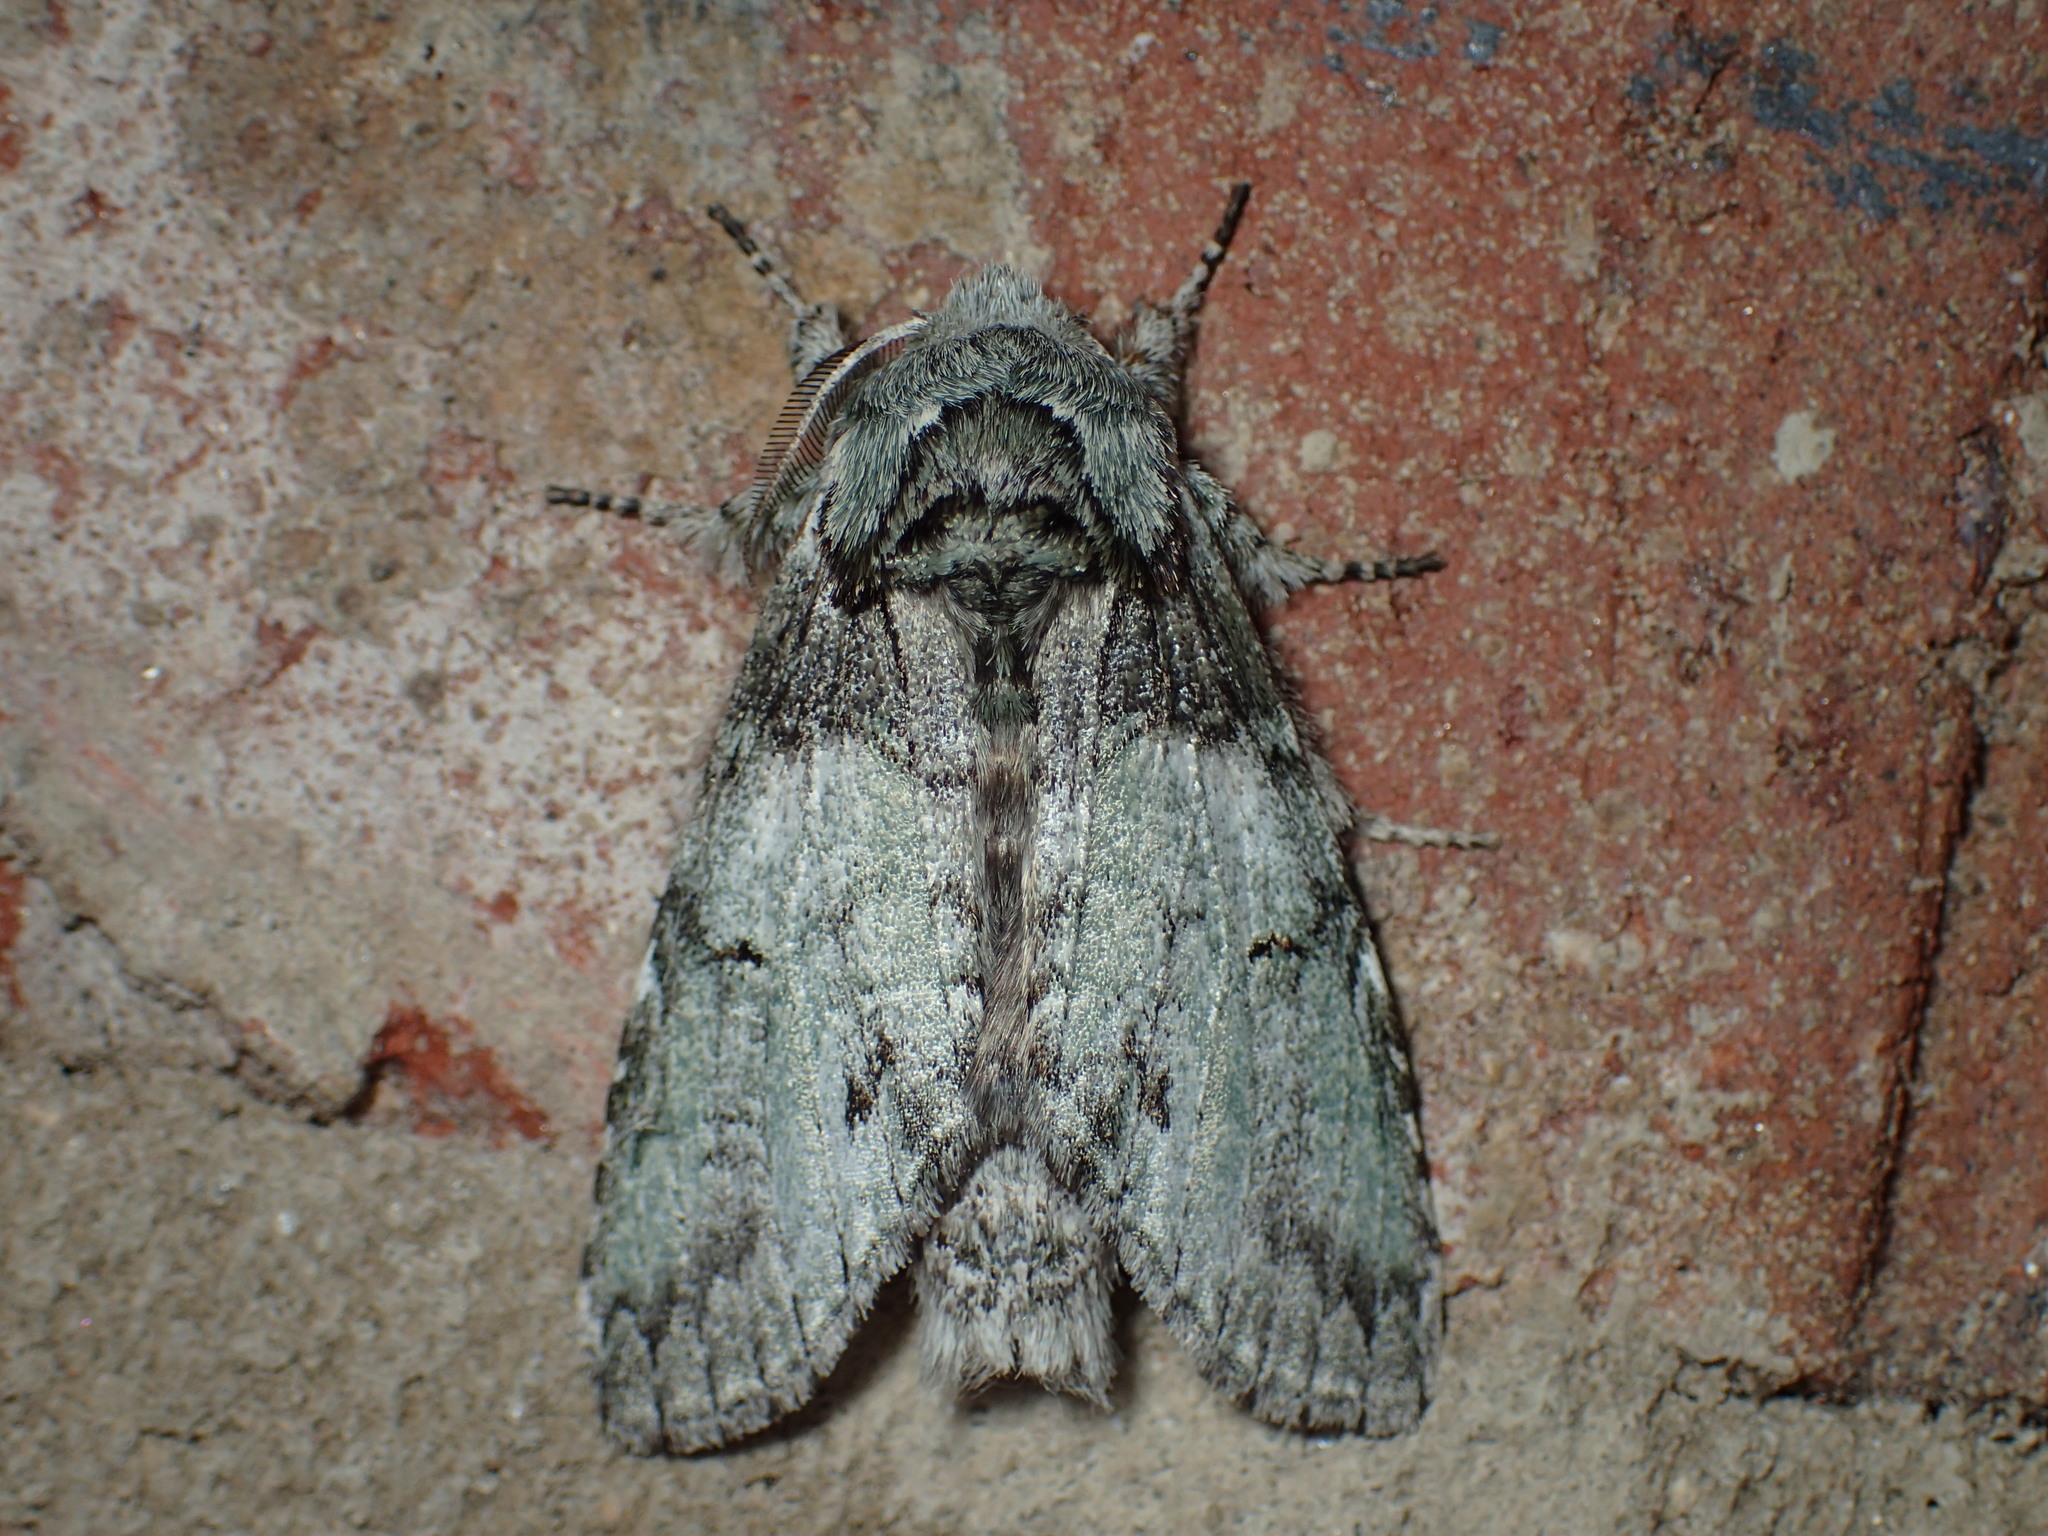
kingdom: Animalia
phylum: Arthropoda
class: Insecta
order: Lepidoptera
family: Notodontidae
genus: Macrurocampa
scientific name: Macrurocampa marthesia
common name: Mottled prominent
